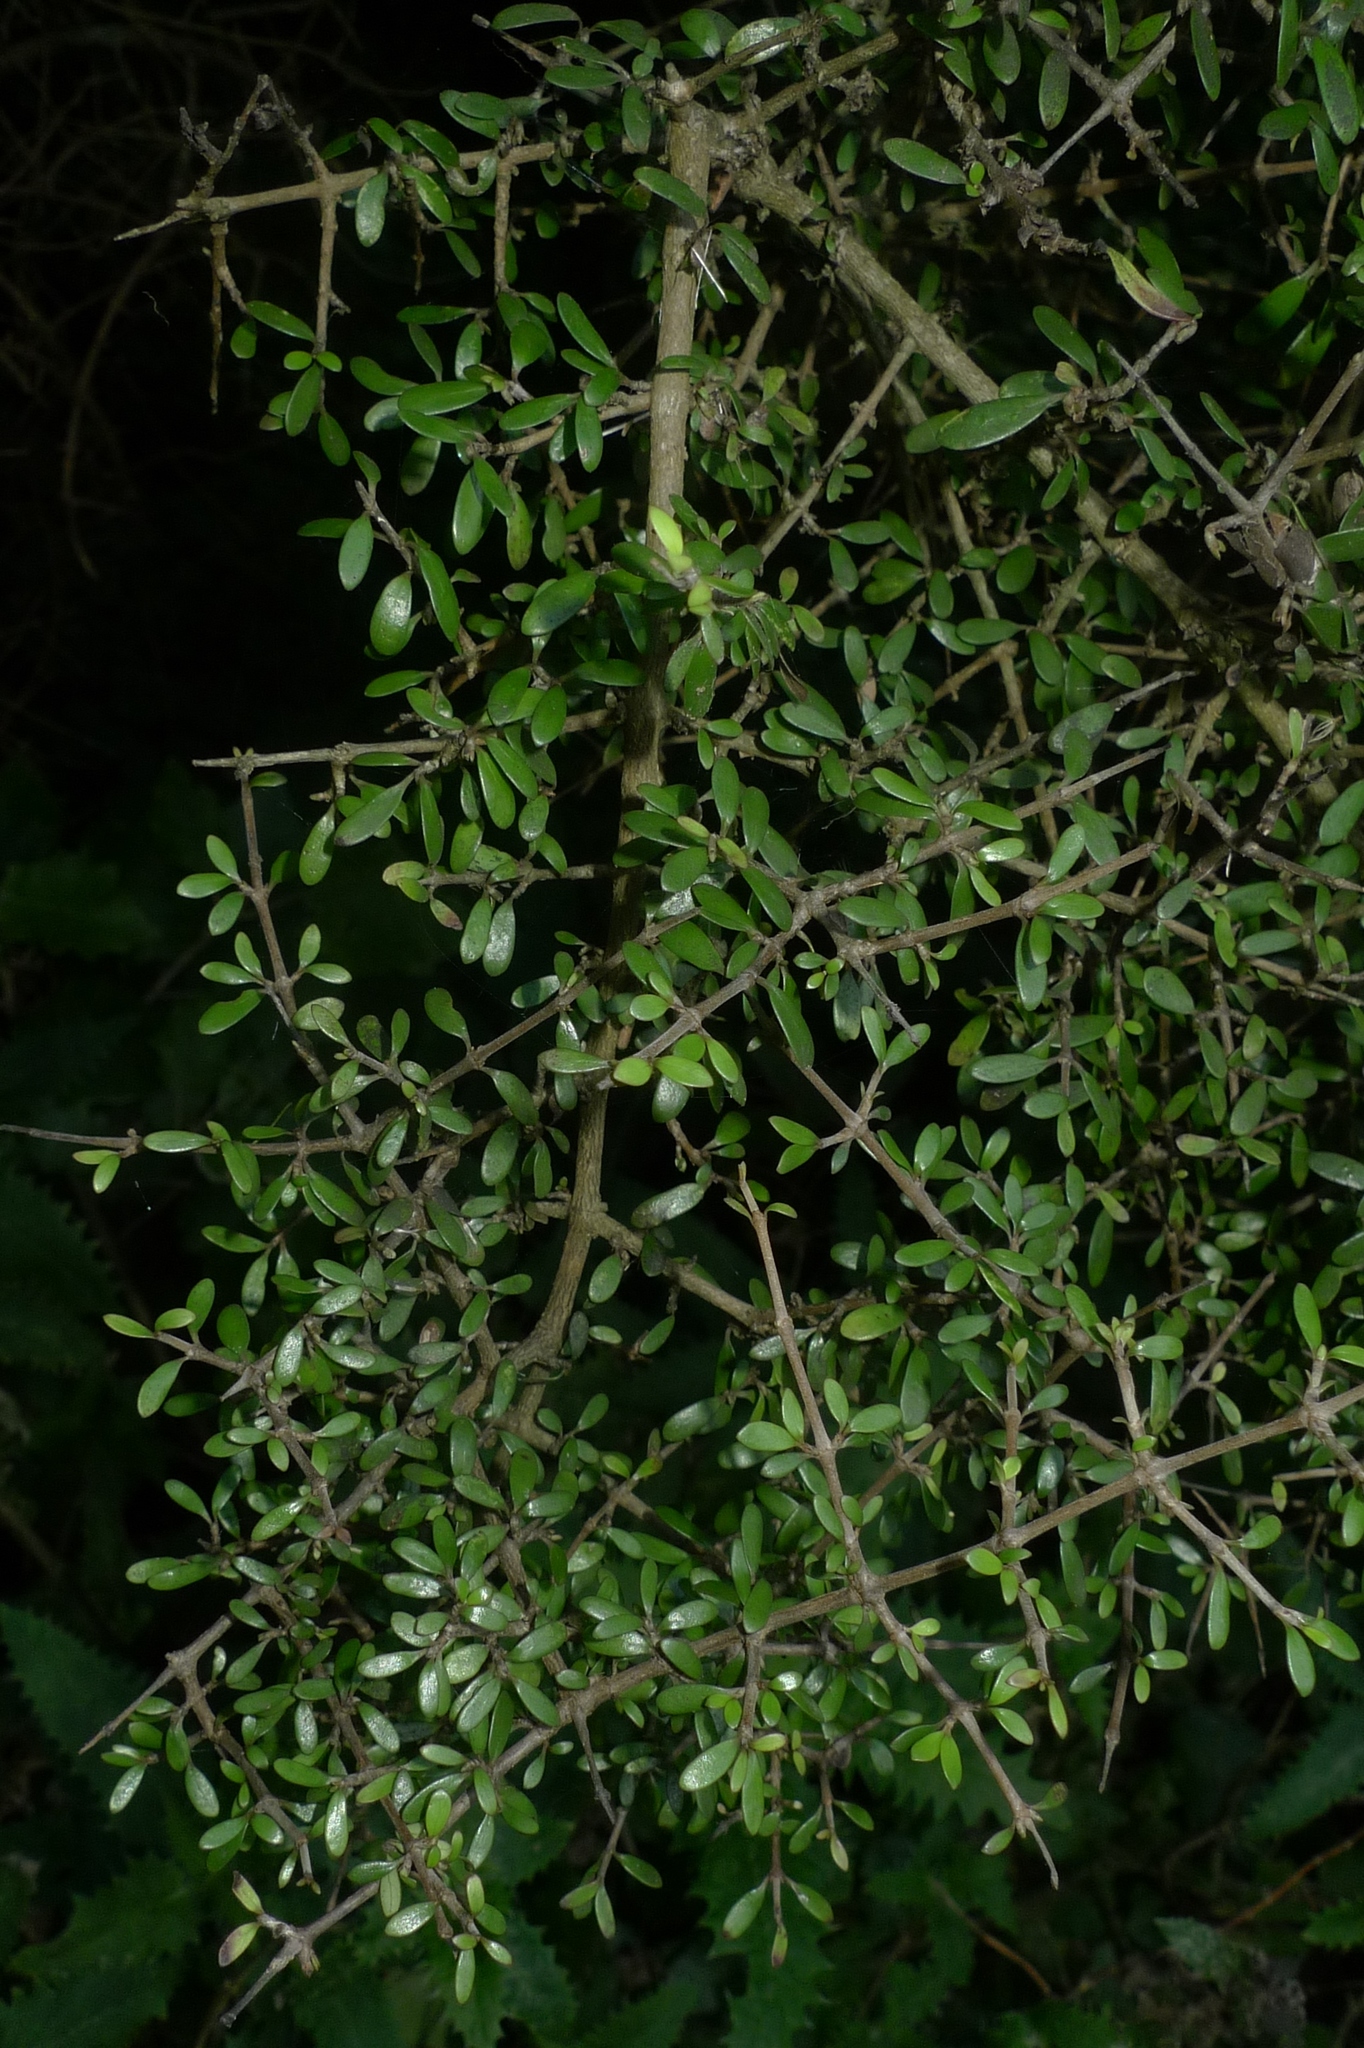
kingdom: Plantae
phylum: Tracheophyta
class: Magnoliopsida
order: Gentianales
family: Rubiaceae
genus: Coprosma
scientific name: Coprosma propinqua
